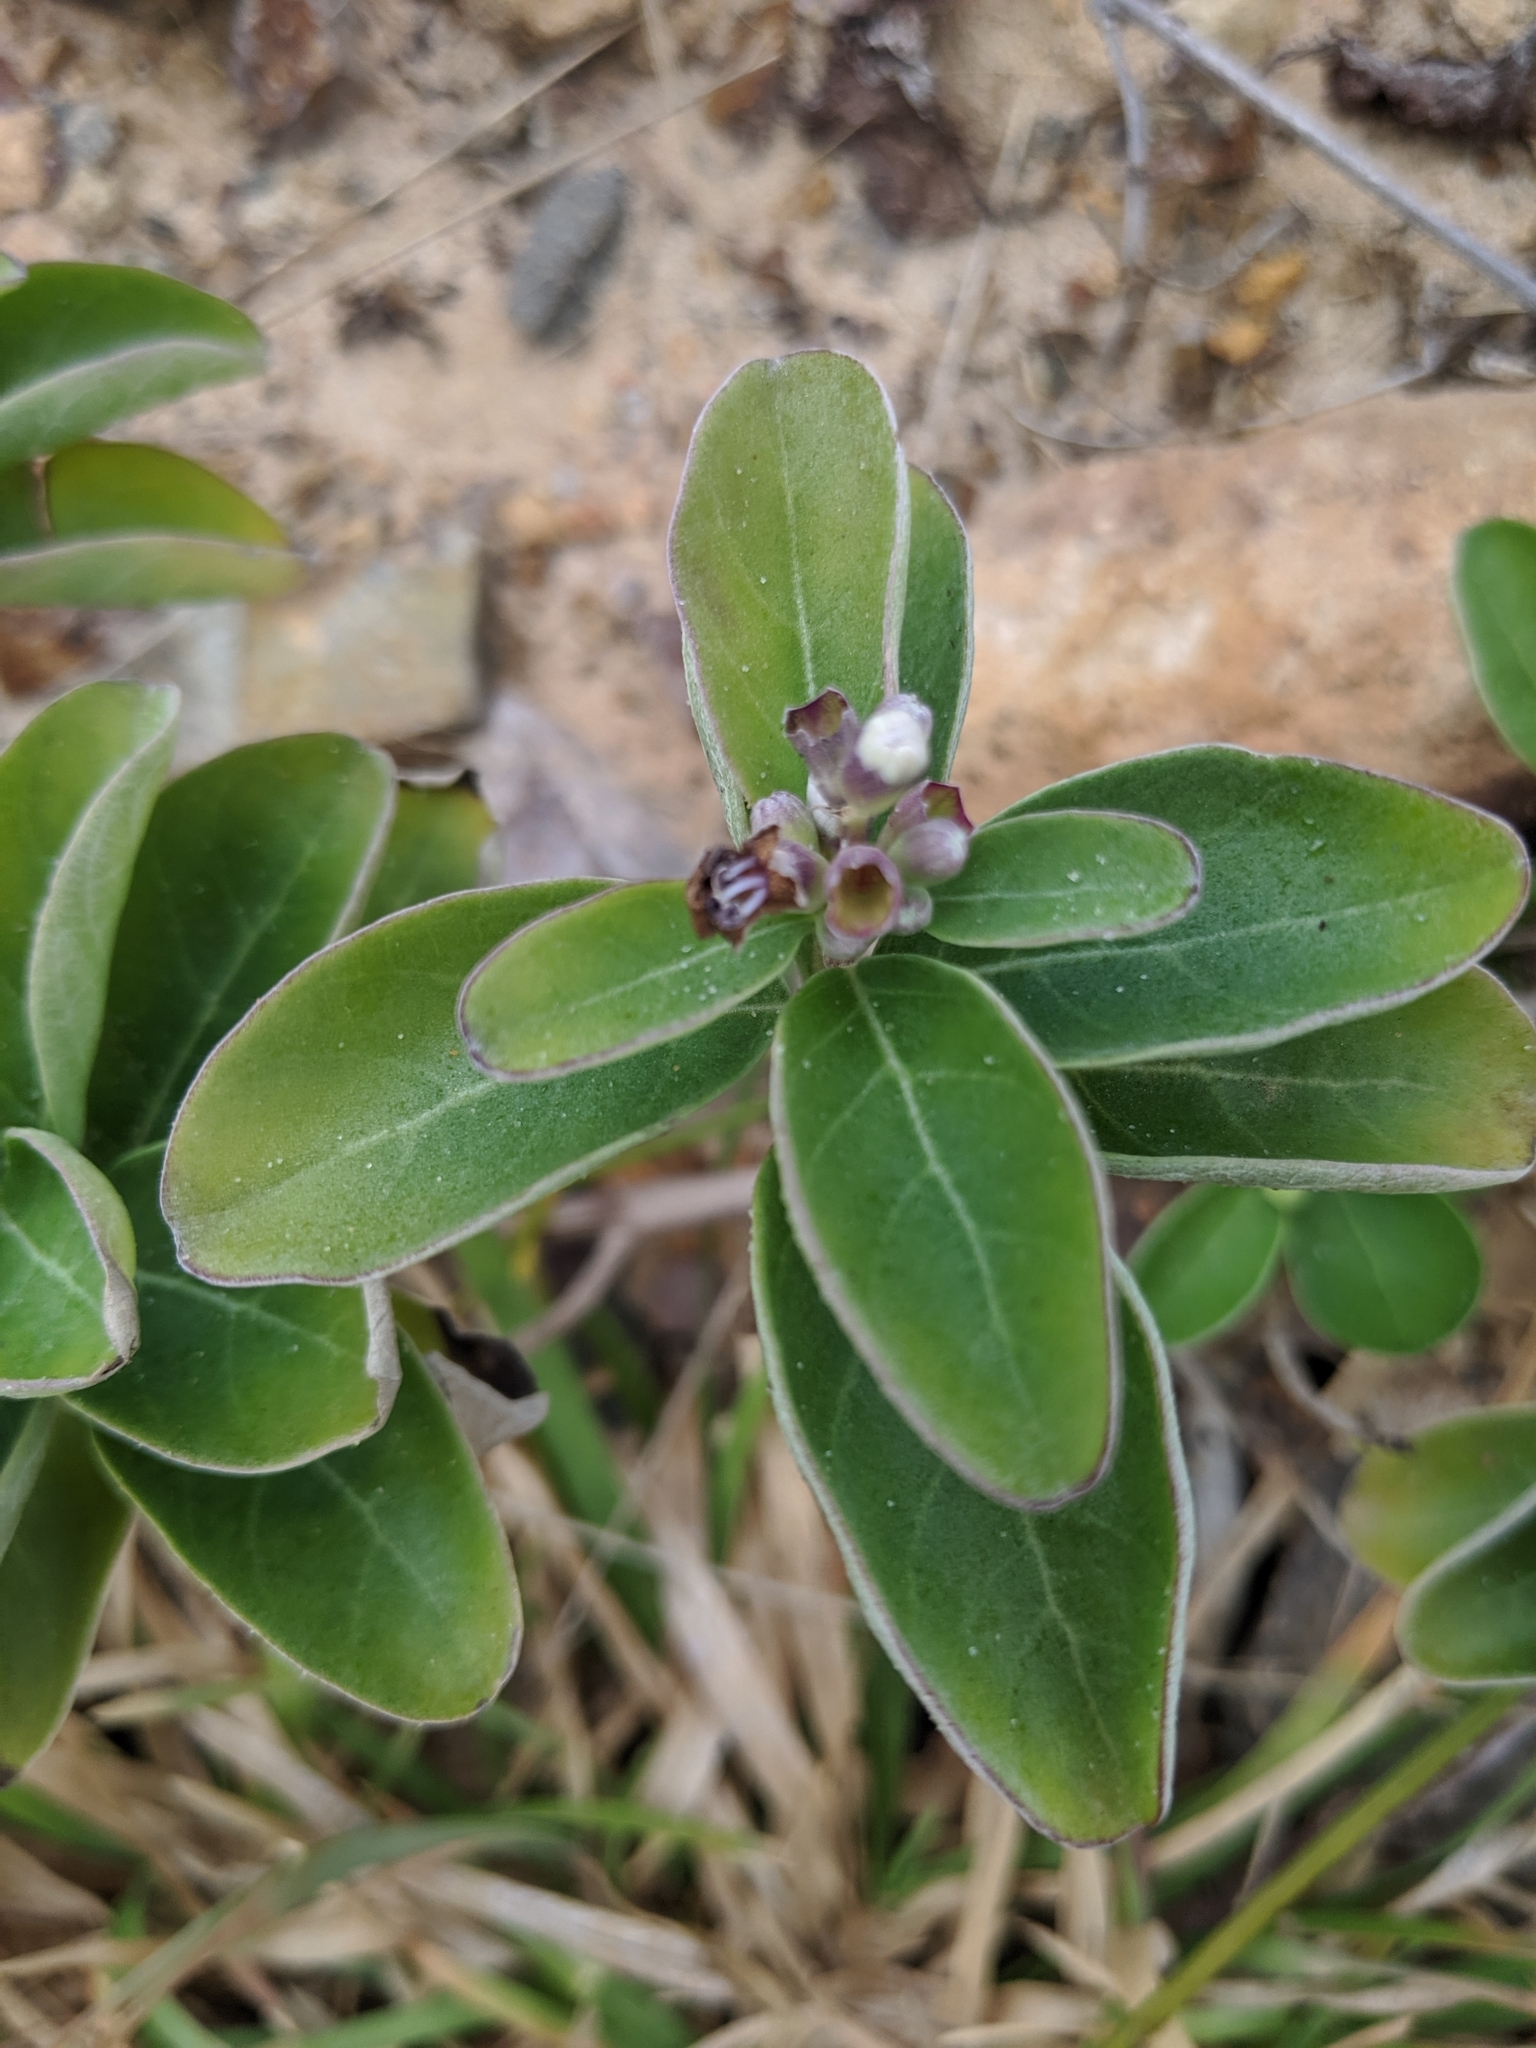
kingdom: Plantae
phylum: Tracheophyta
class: Magnoliopsida
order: Lamiales
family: Lamiaceae
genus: Vitex
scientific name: Vitex rotundifolia
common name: Beach vitex
